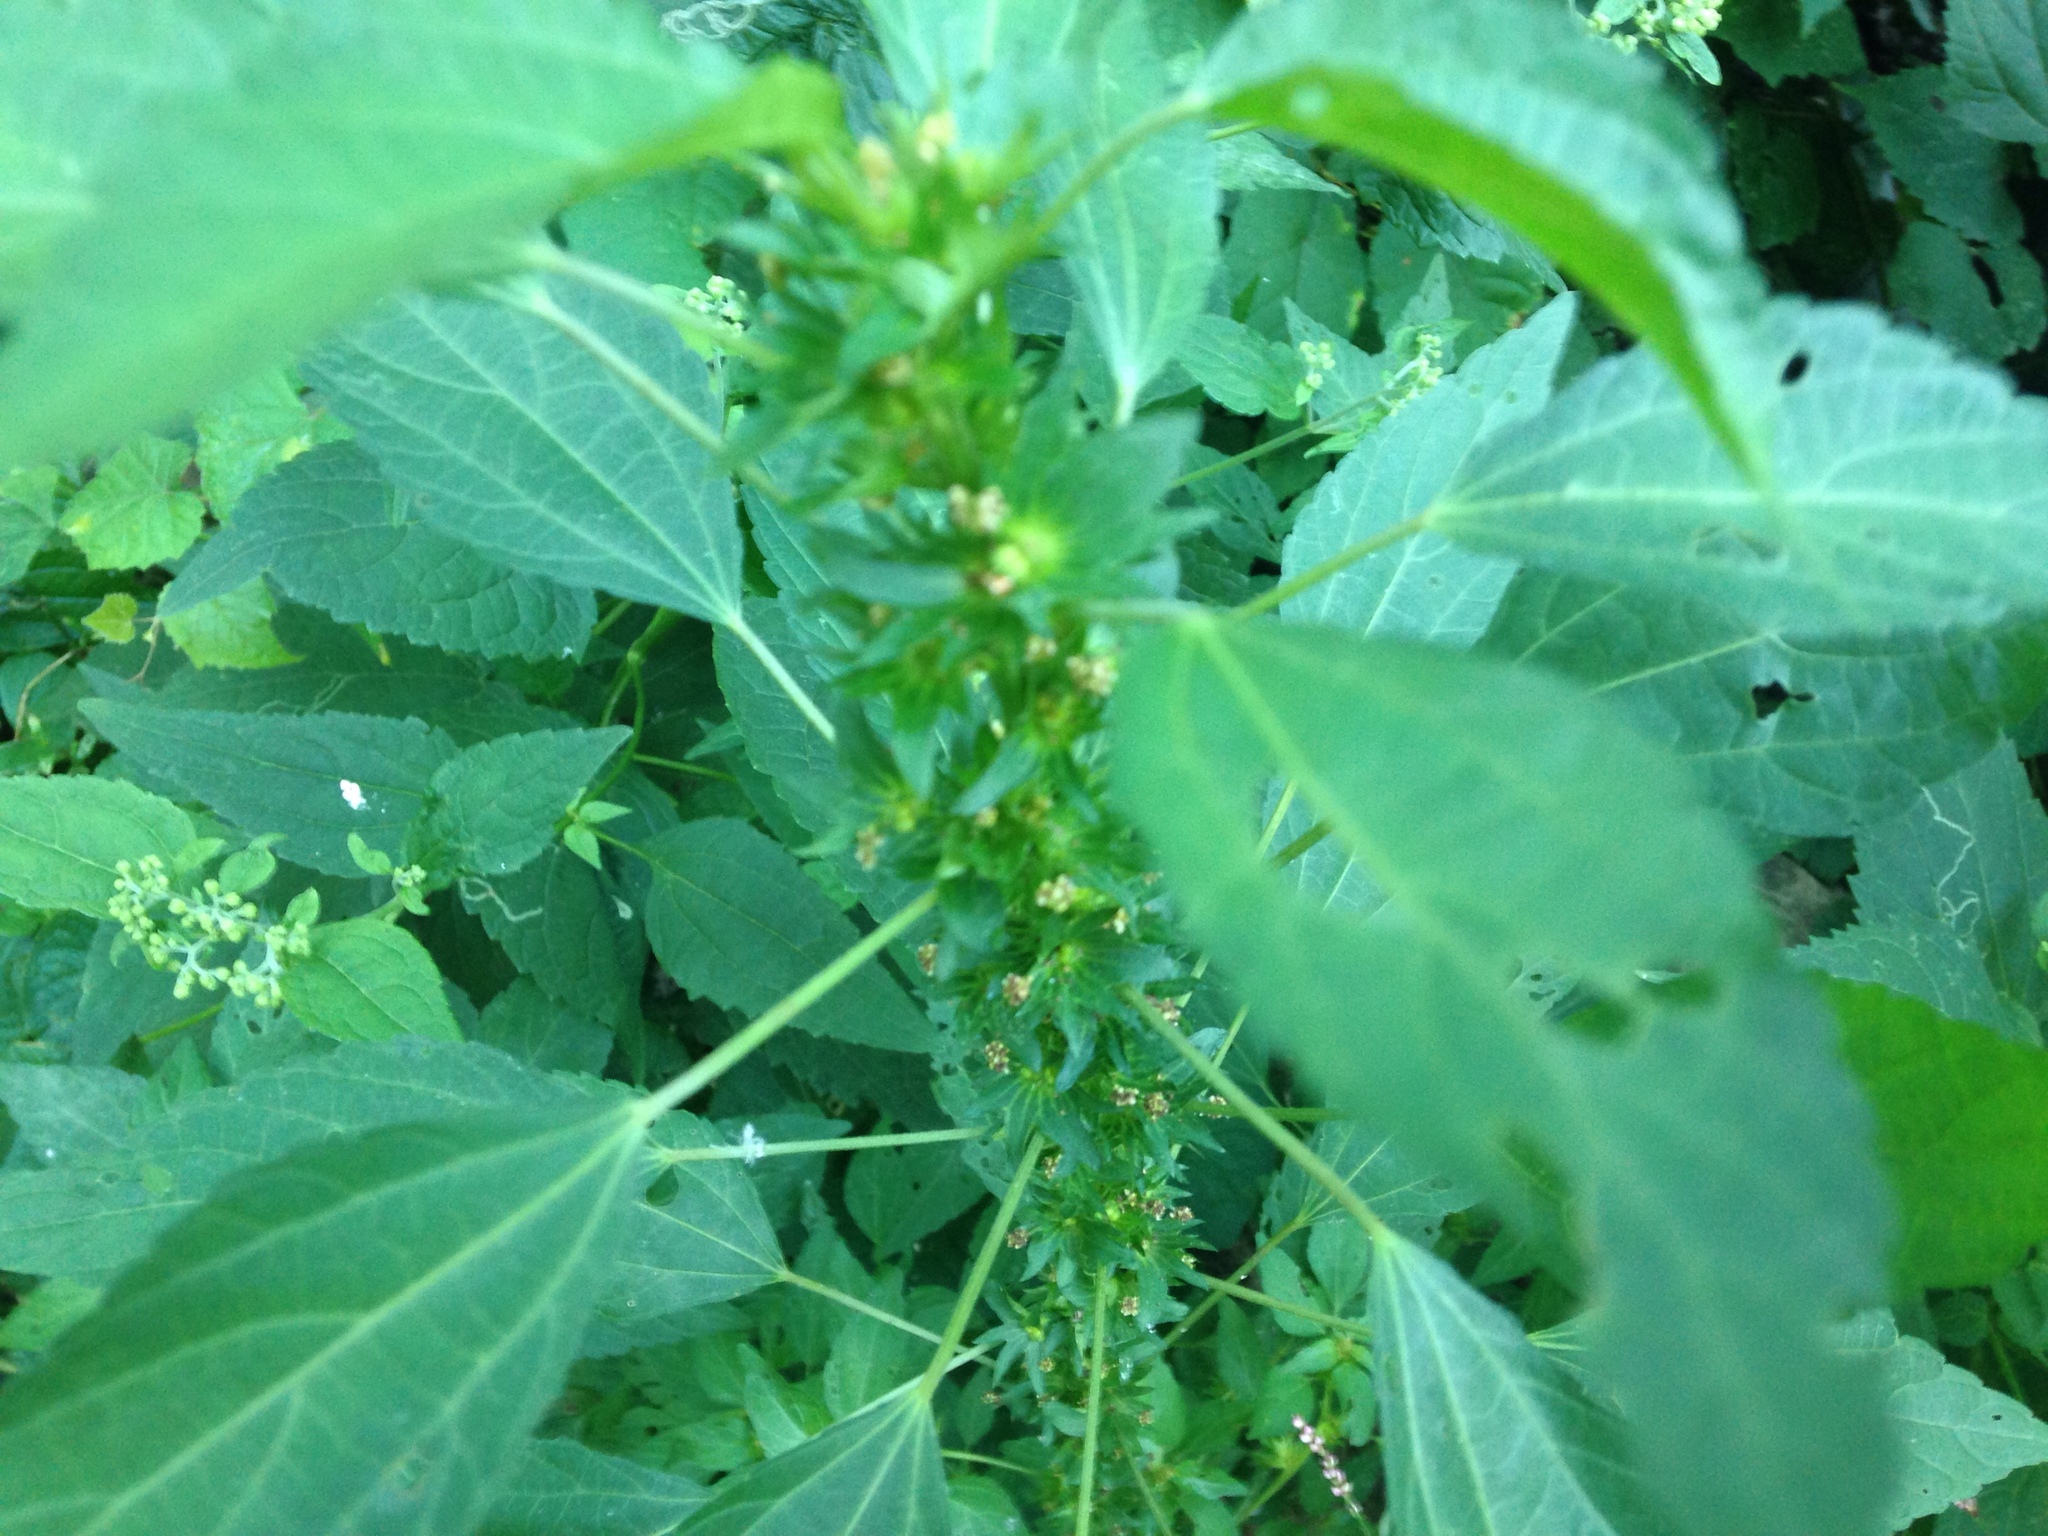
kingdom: Plantae
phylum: Tracheophyta
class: Magnoliopsida
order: Malpighiales
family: Euphorbiaceae
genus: Acalypha
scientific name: Acalypha rhomboidea
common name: Rhombic copperleaf
